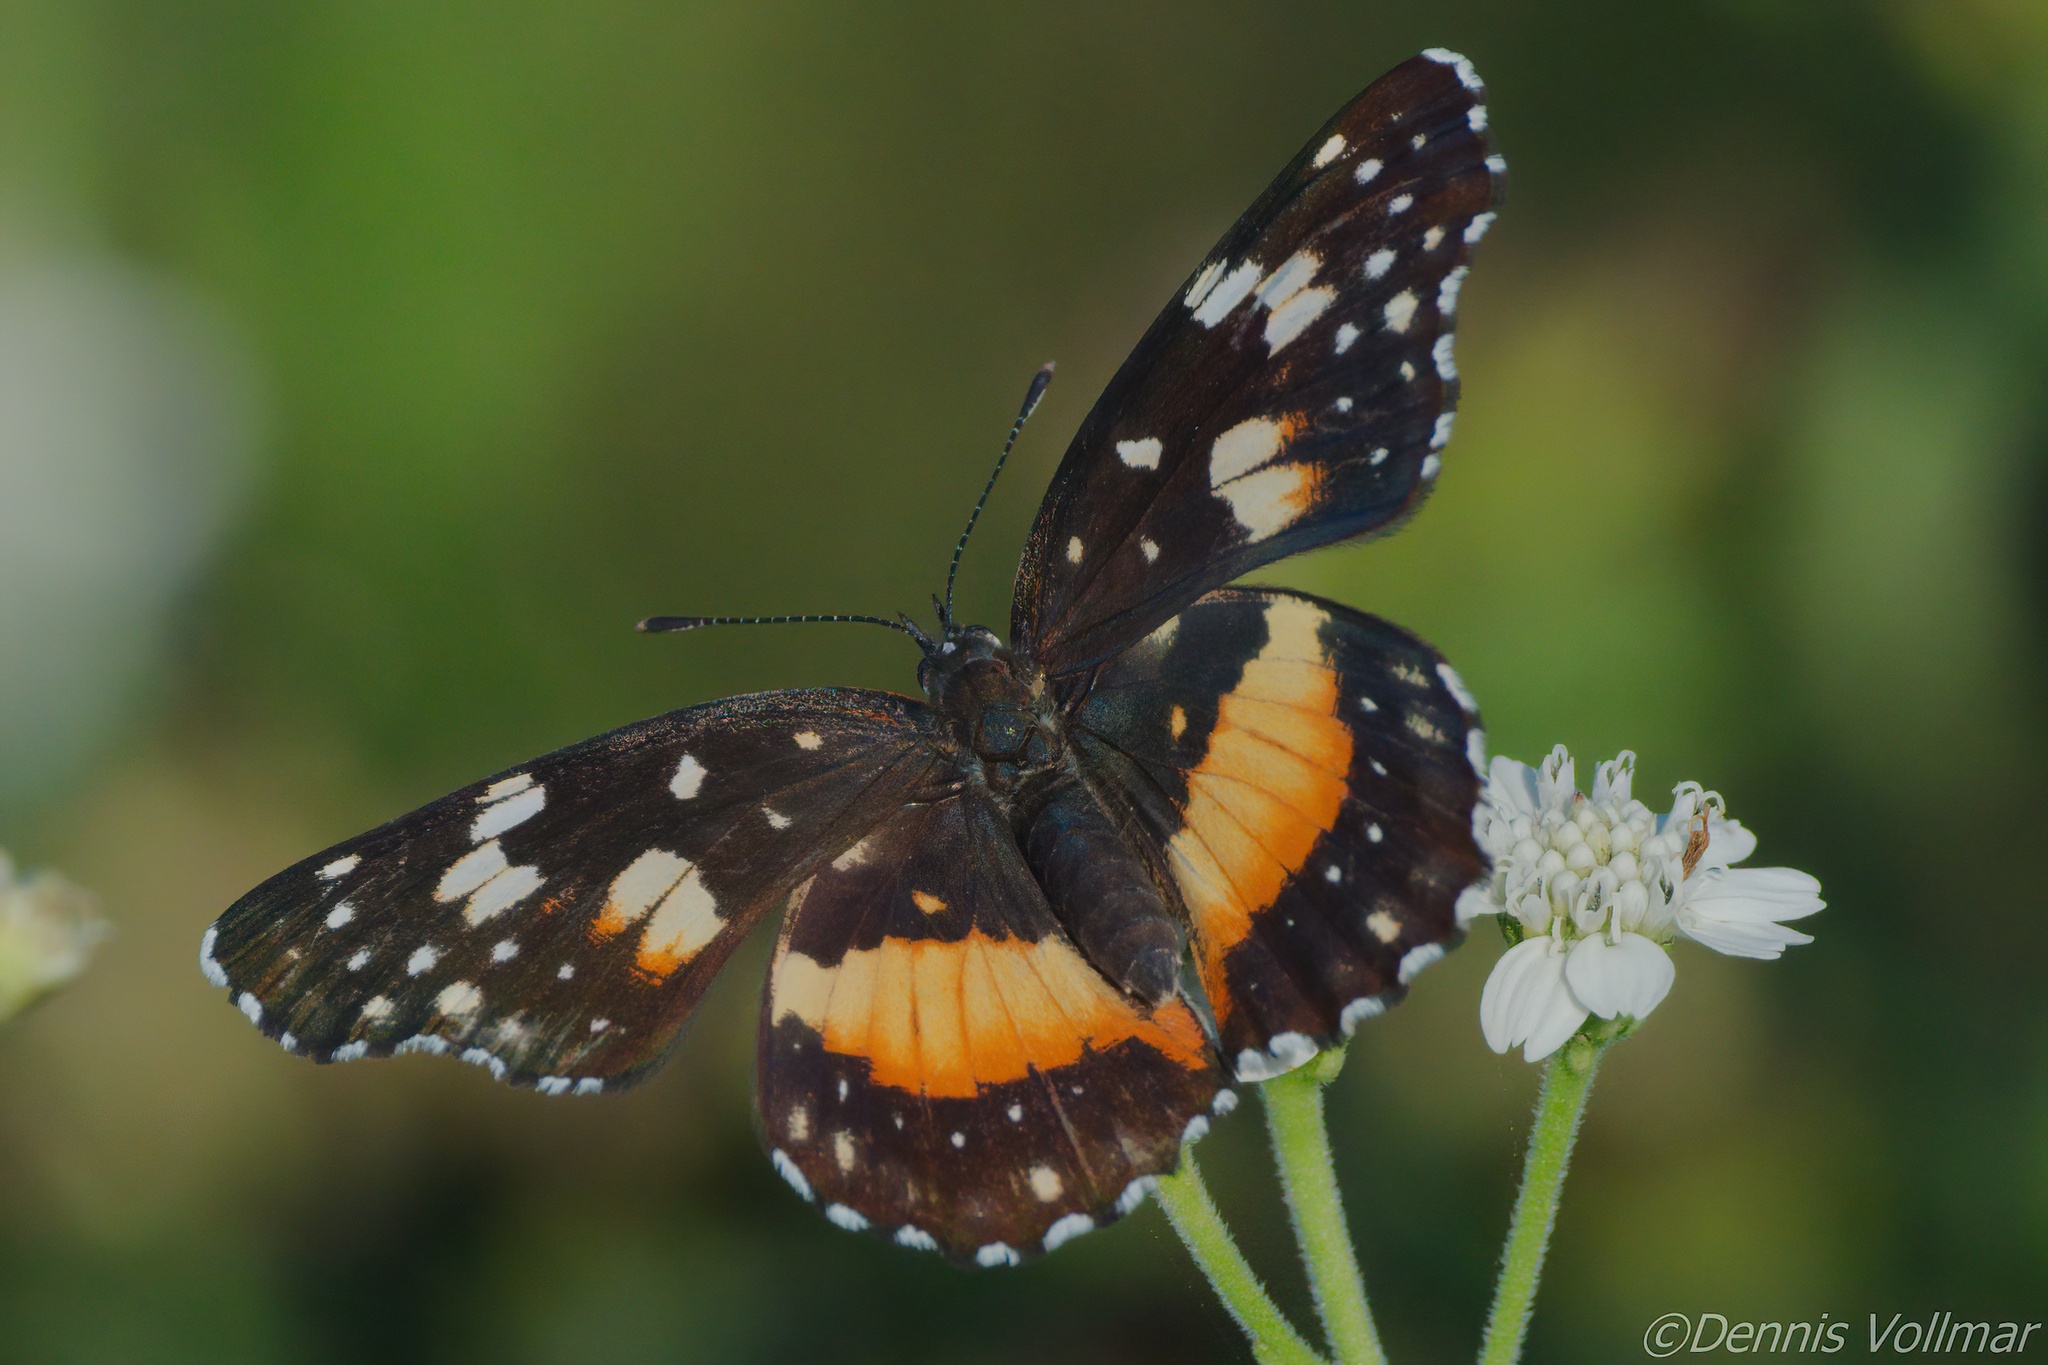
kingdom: Animalia
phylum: Arthropoda
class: Insecta
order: Lepidoptera
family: Nymphalidae
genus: Chlosyne
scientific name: Chlosyne lacinia
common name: Bordered patch
